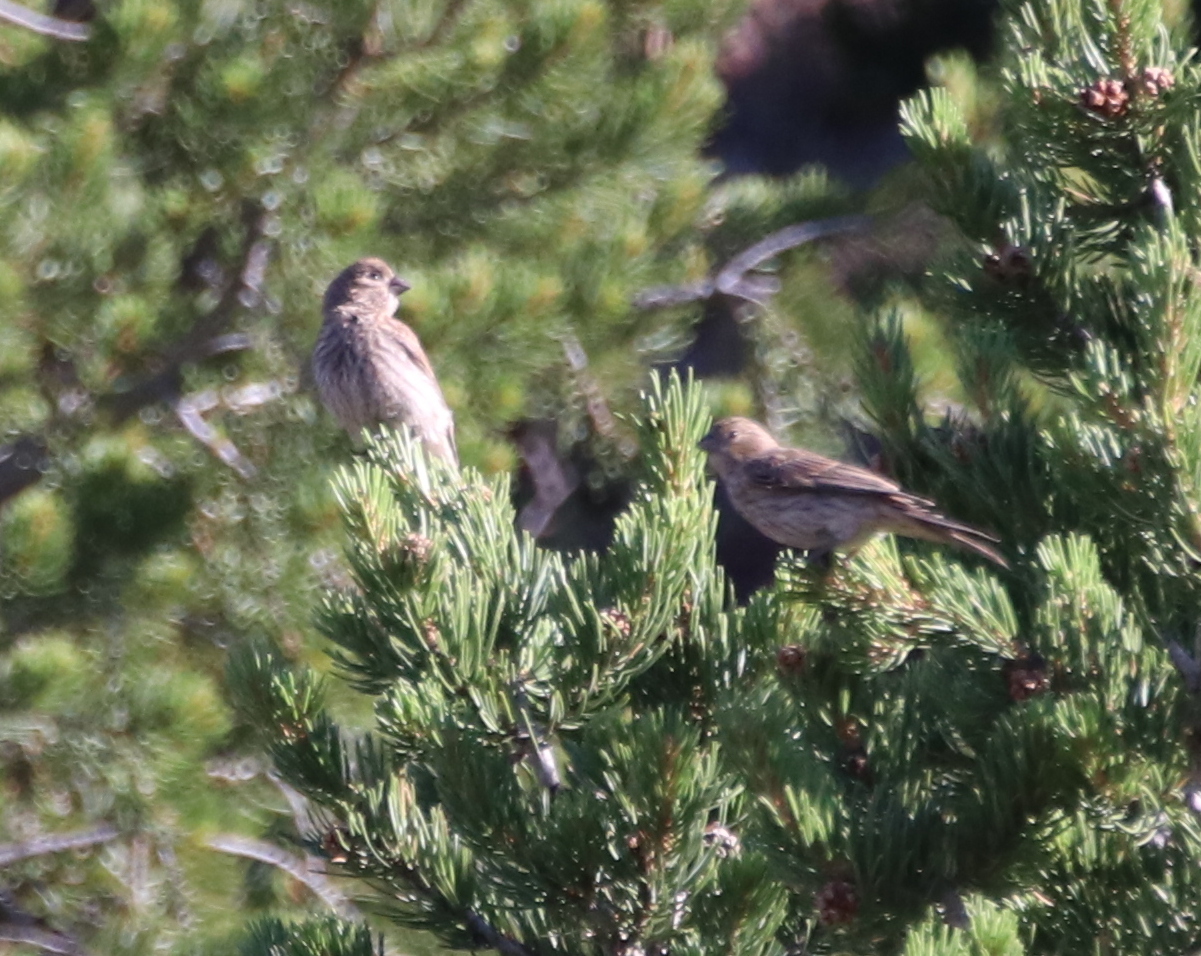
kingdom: Animalia
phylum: Chordata
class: Aves
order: Passeriformes
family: Fringillidae
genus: Haemorhous
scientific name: Haemorhous mexicanus
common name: House finch
